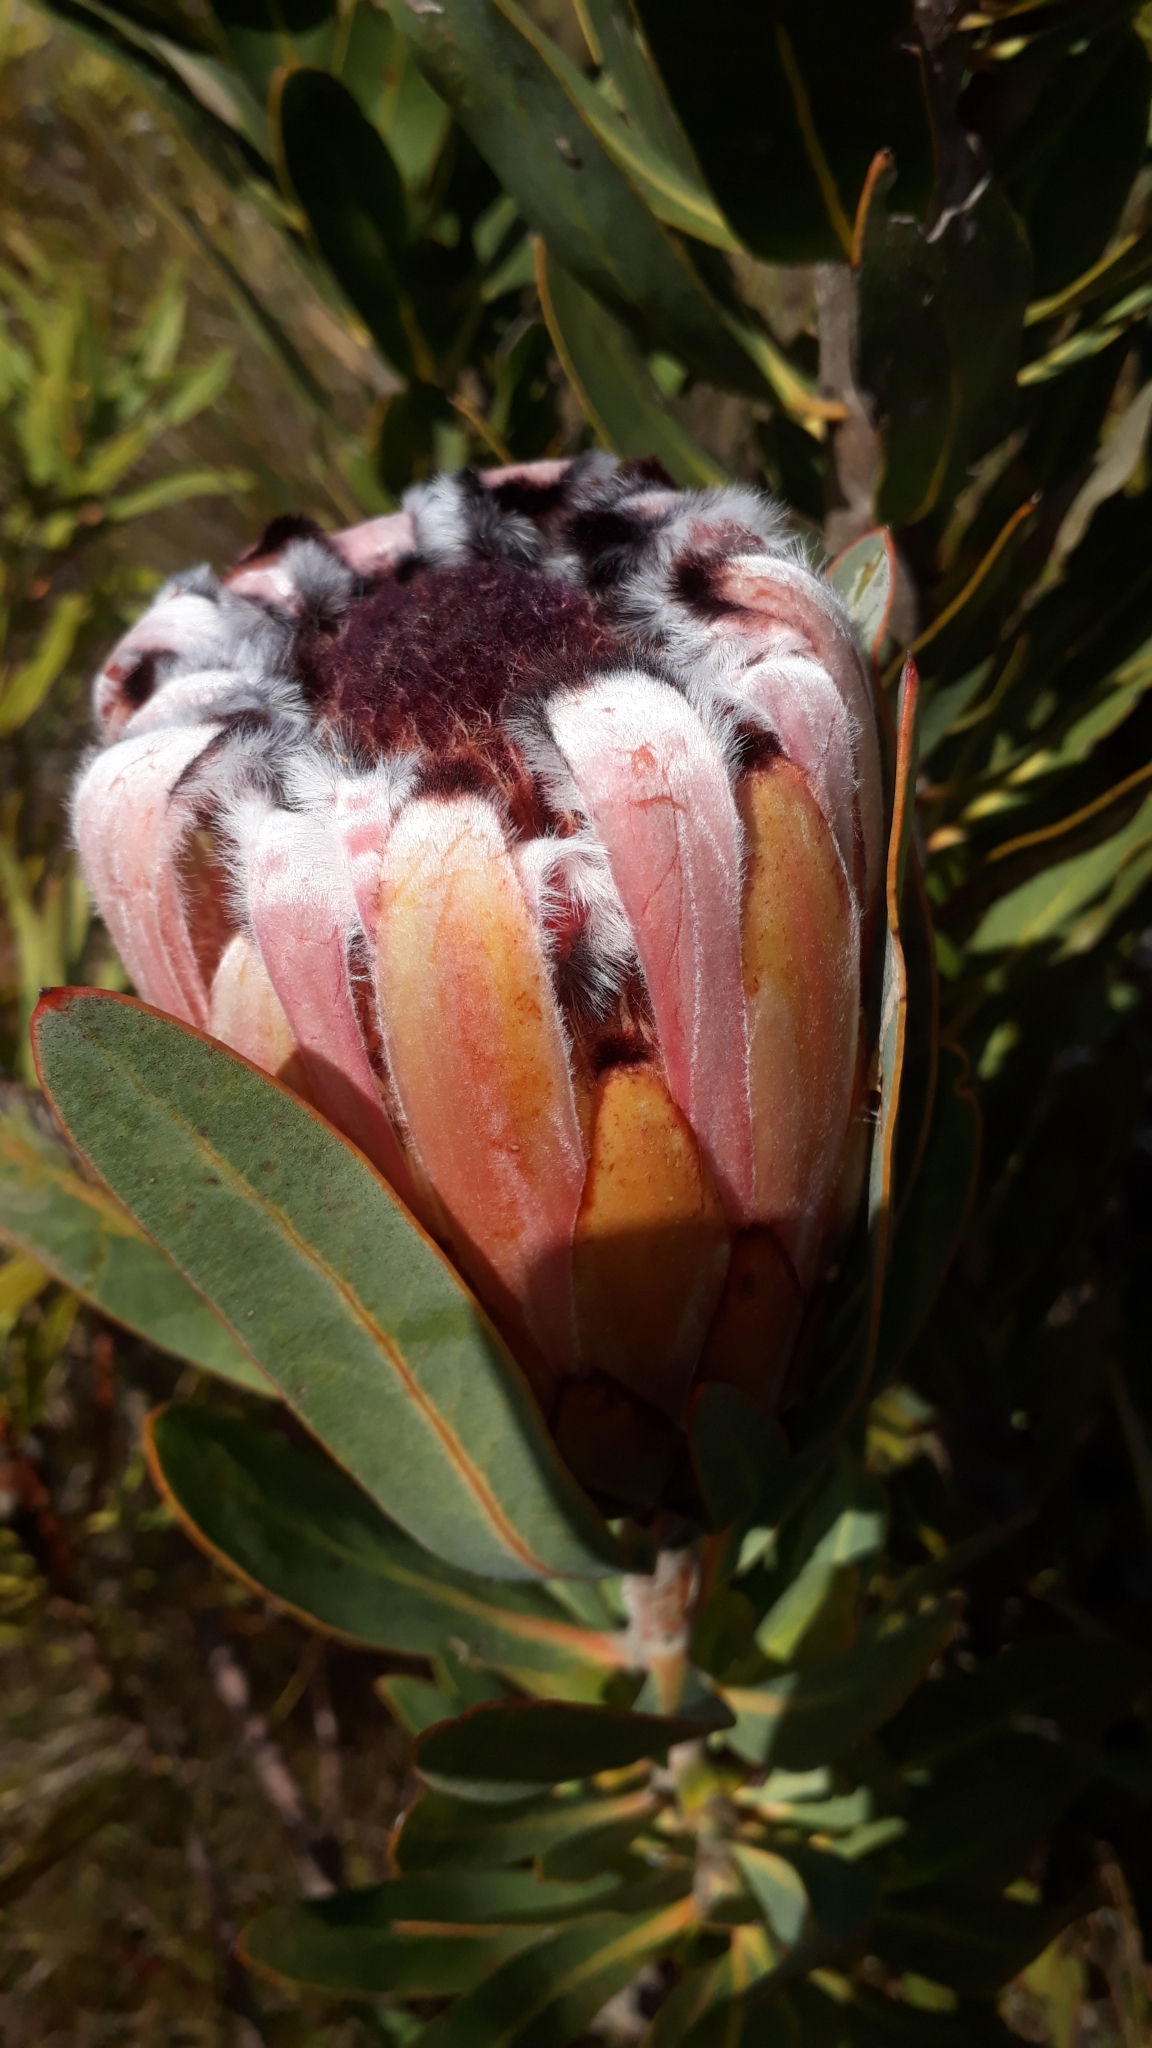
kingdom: Plantae
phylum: Tracheophyta
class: Magnoliopsida
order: Proteales
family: Proteaceae
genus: Protea
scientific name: Protea laurifolia
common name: Grey-leaf sugarbsh
